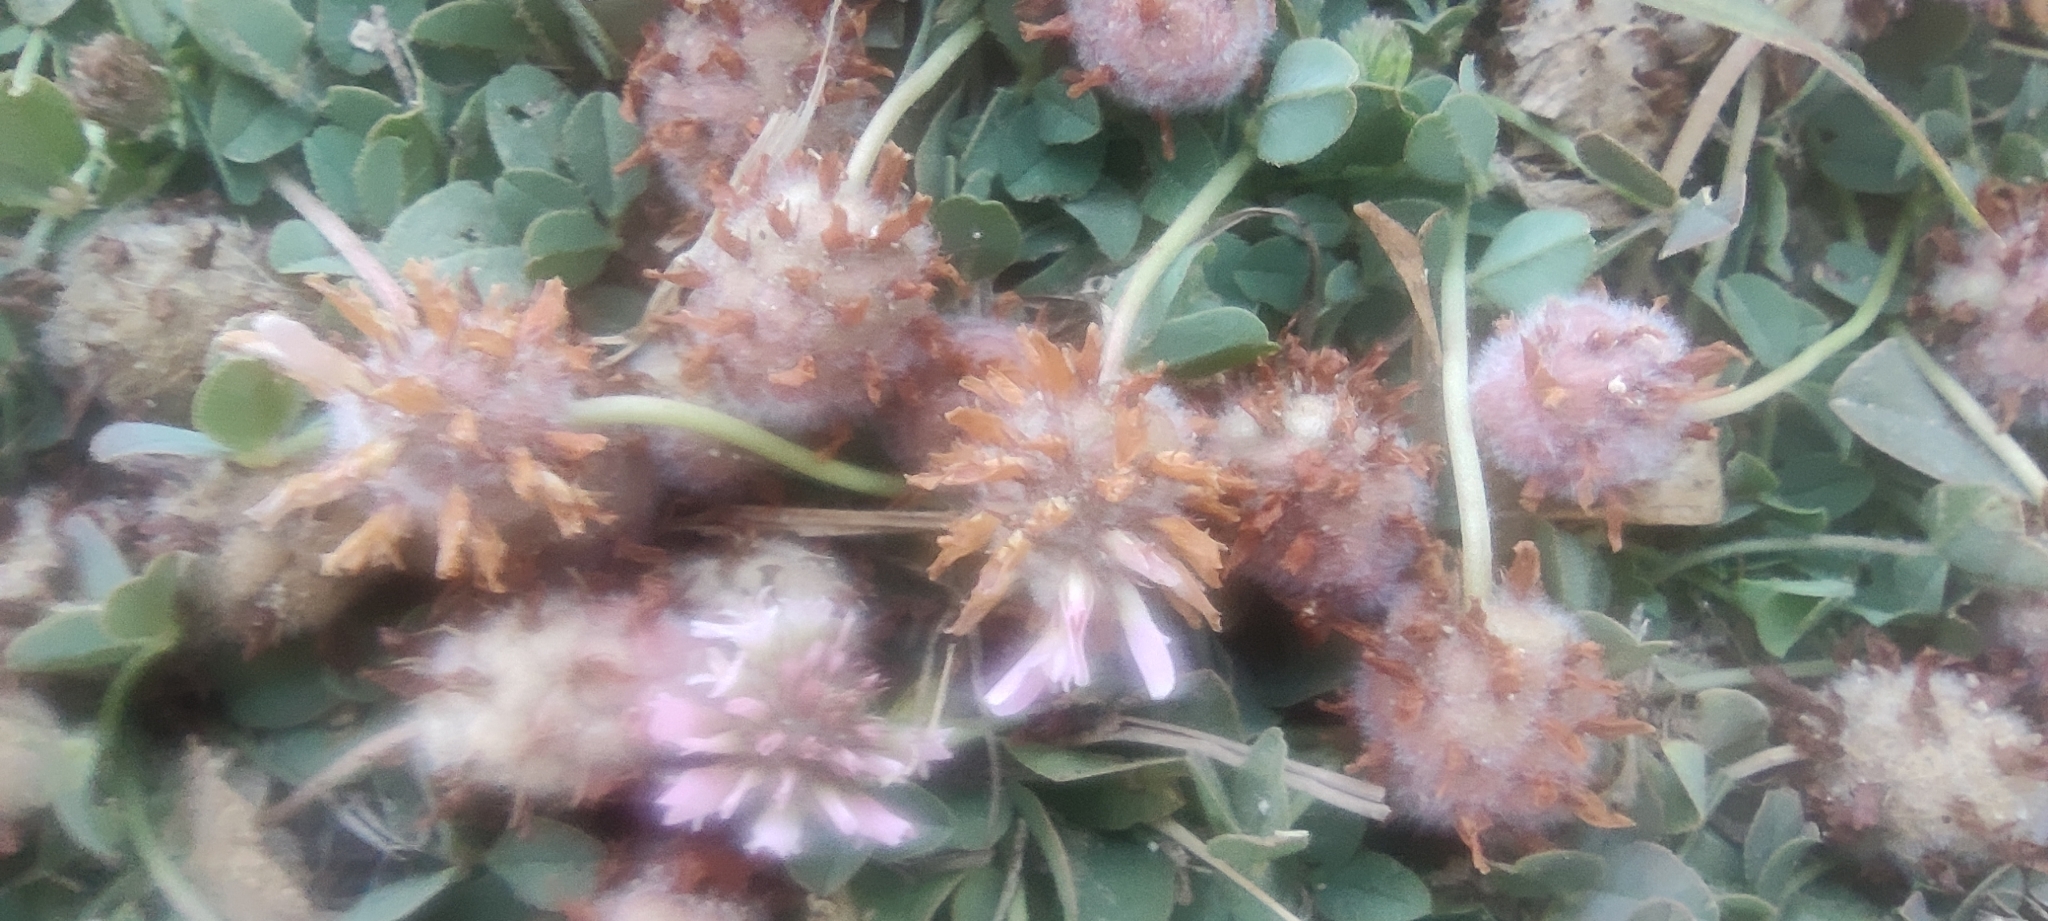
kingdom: Plantae
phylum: Tracheophyta
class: Magnoliopsida
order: Fabales
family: Fabaceae
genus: Trifolium
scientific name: Trifolium fragiferum
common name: Strawberry clover
